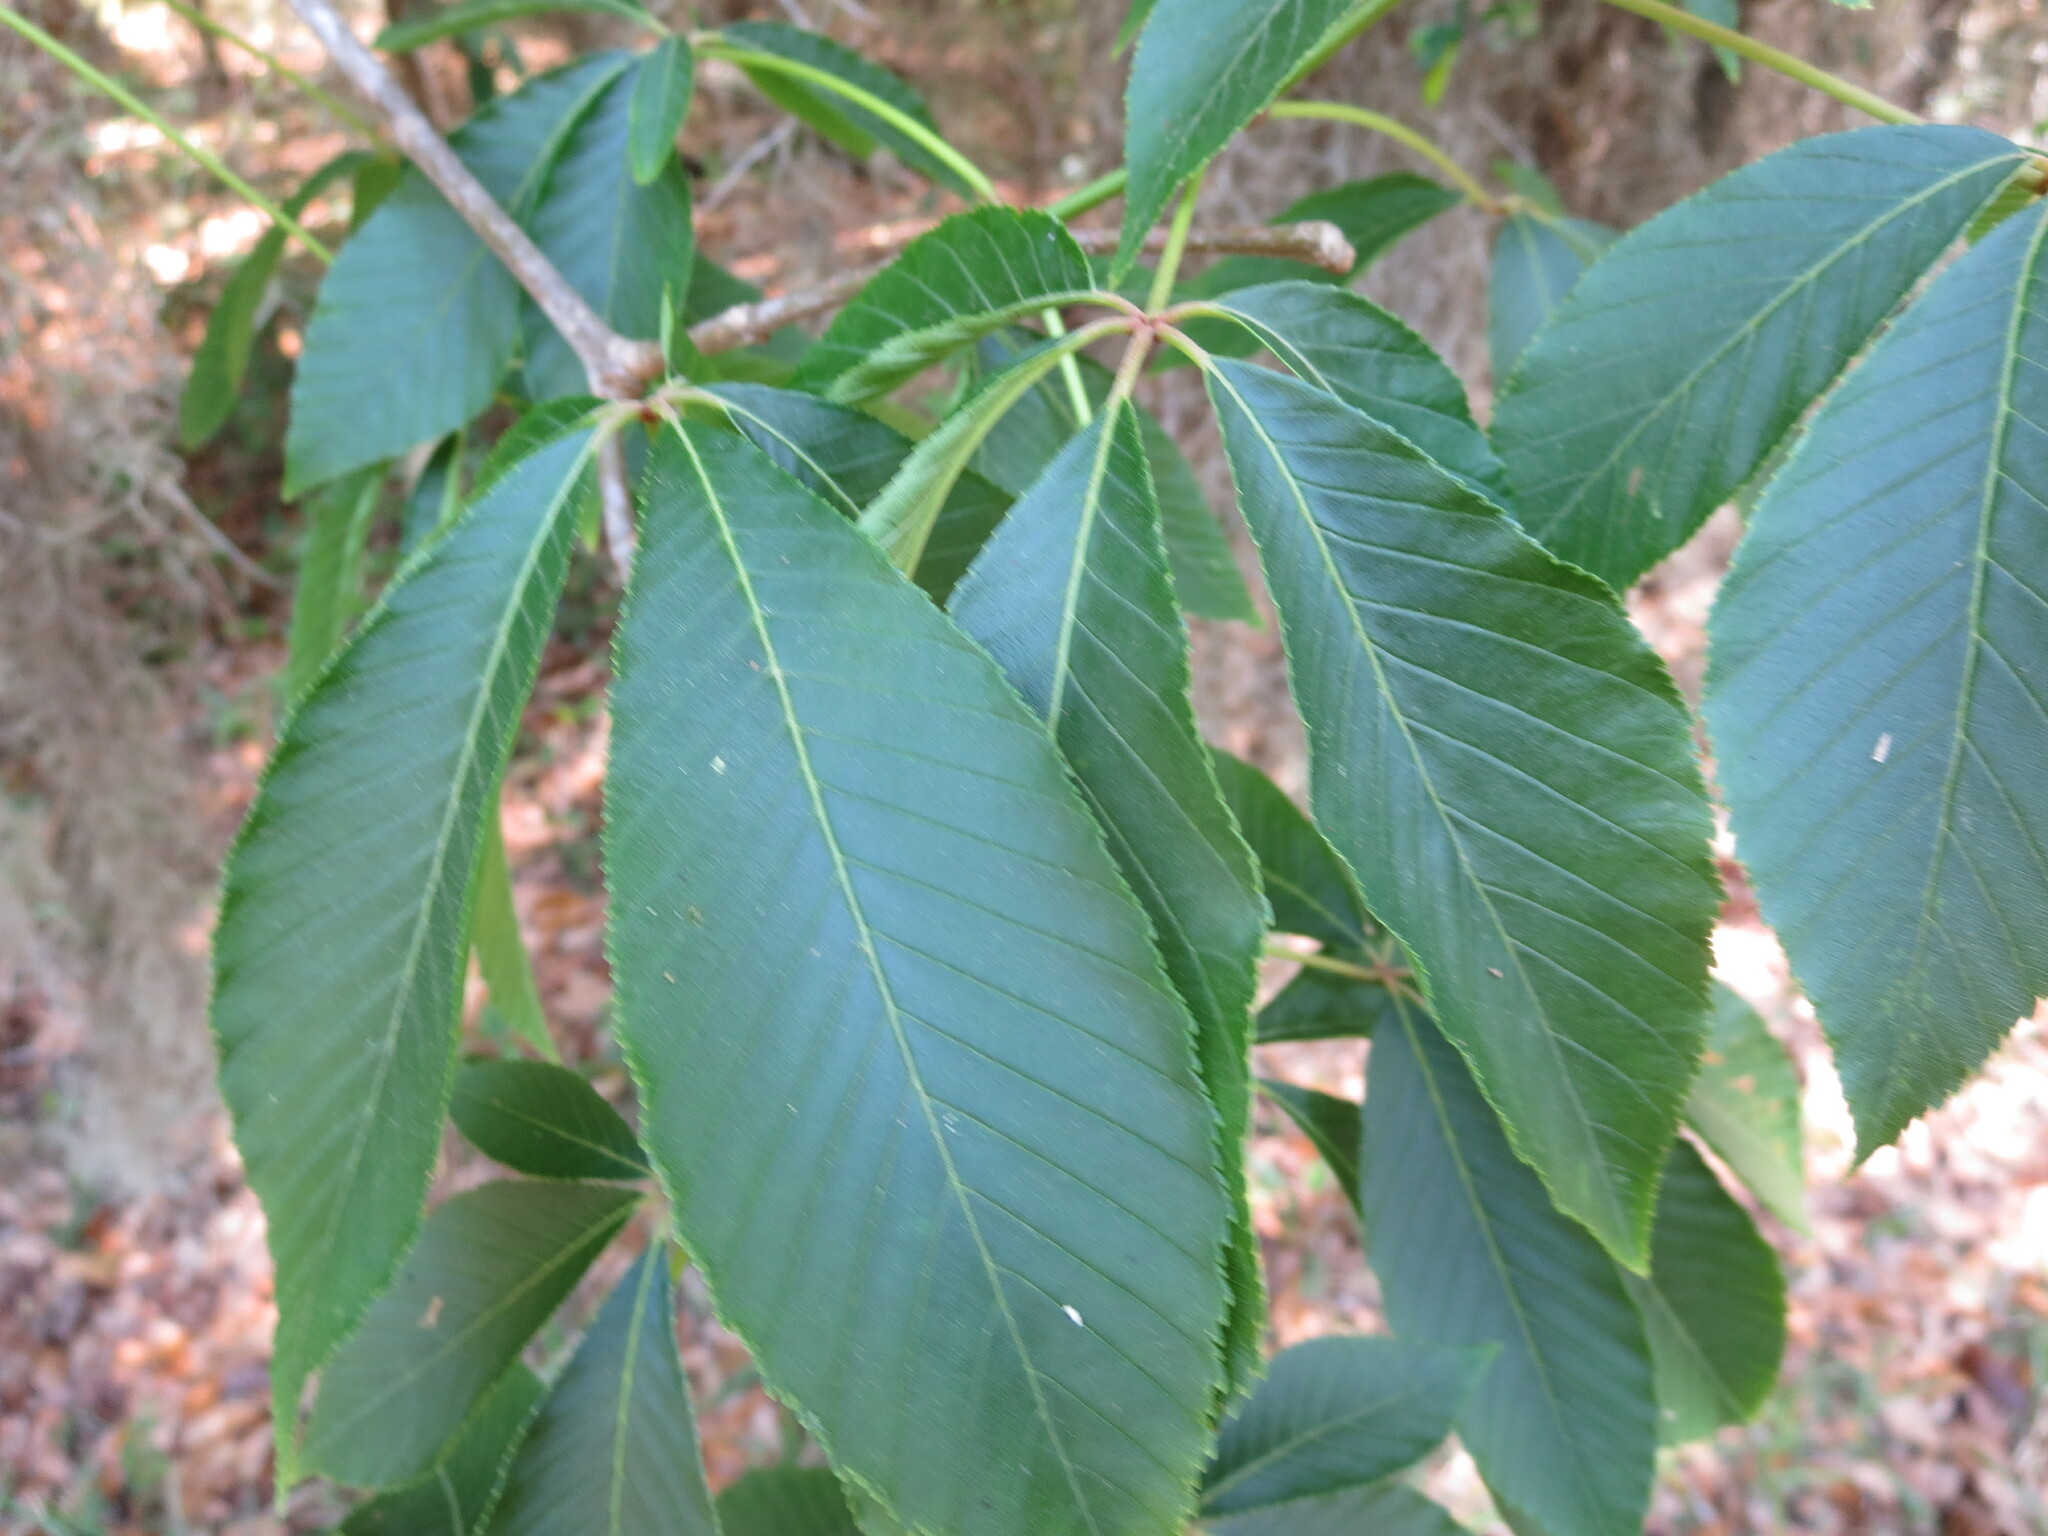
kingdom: Plantae
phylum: Tracheophyta
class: Magnoliopsida
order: Sapindales
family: Sapindaceae
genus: Aesculus
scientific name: Aesculus pavia
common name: Red buckeye
